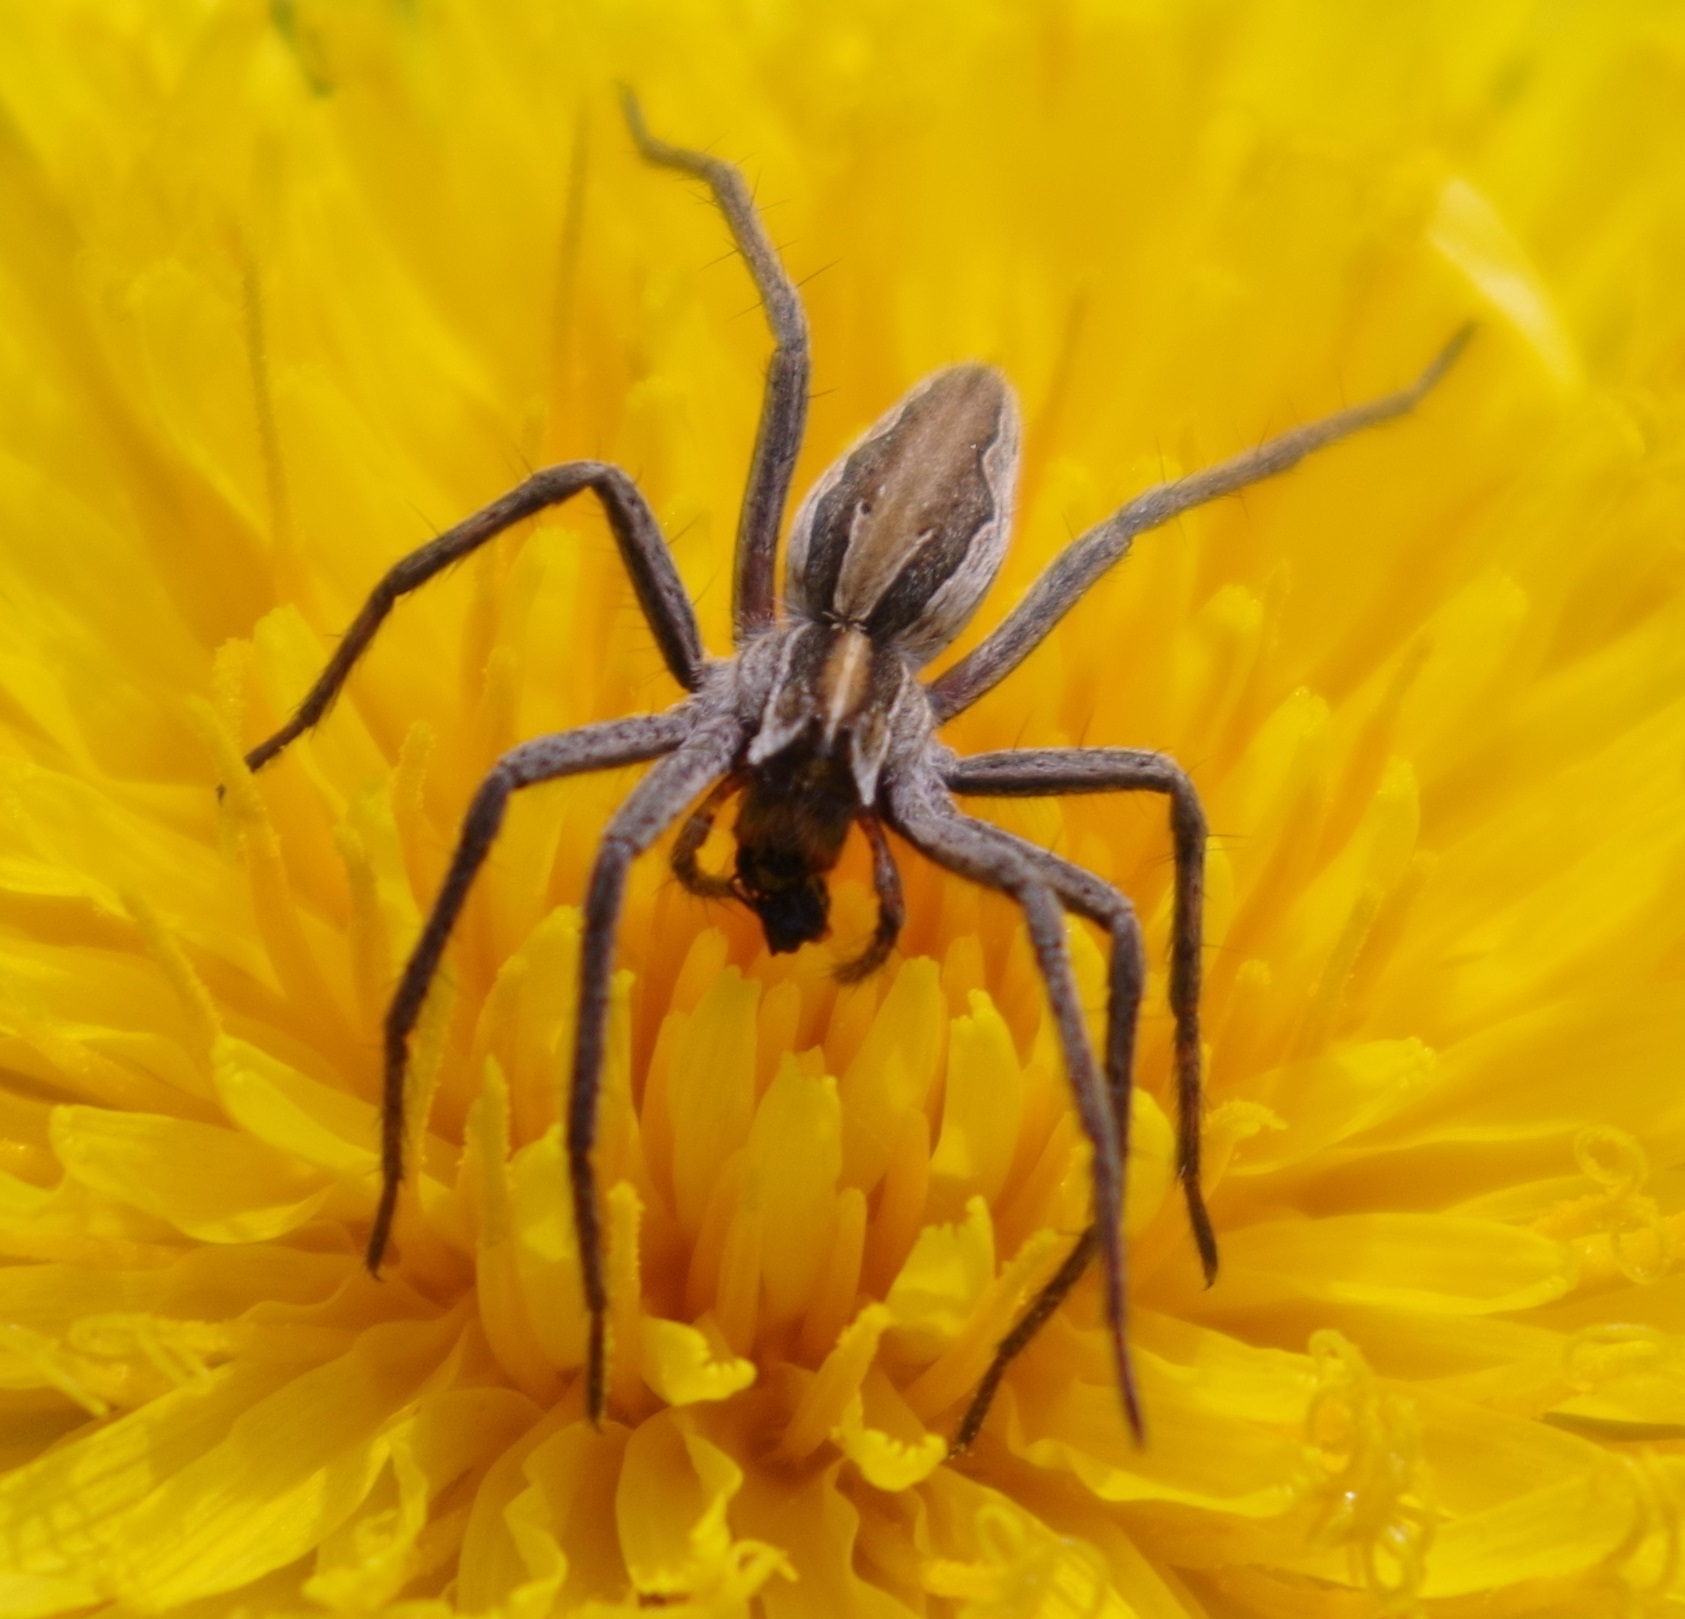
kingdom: Animalia
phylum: Arthropoda
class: Arachnida
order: Araneae
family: Pisauridae
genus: Pisaura
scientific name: Pisaura mirabilis
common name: Tent spider
